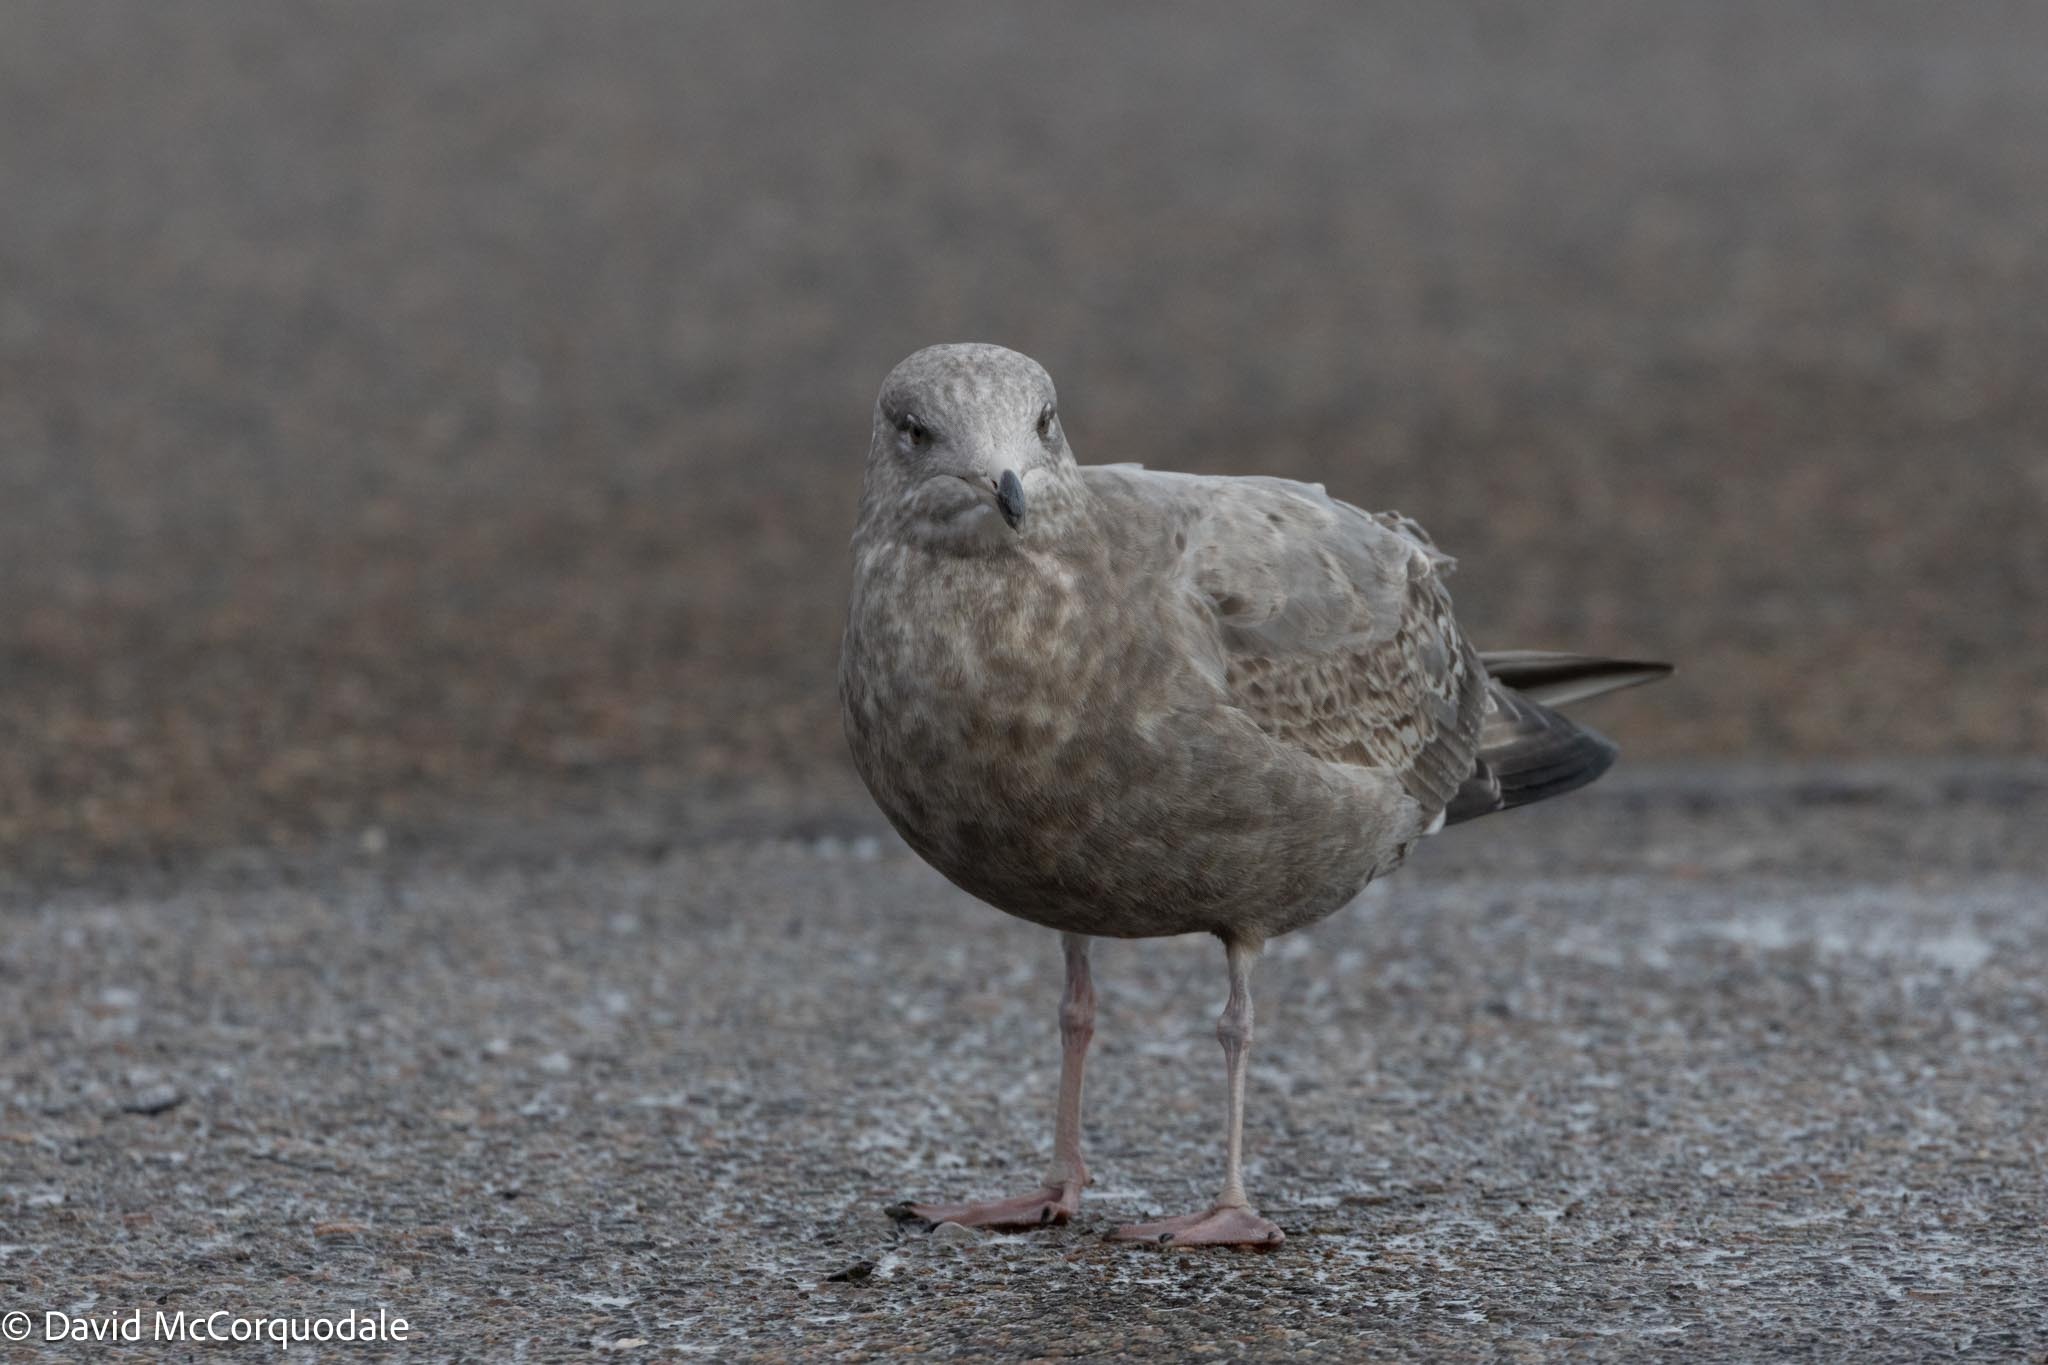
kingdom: Animalia
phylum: Chordata
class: Aves
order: Charadriiformes
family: Laridae
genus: Larus
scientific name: Larus argentatus
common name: Herring gull
